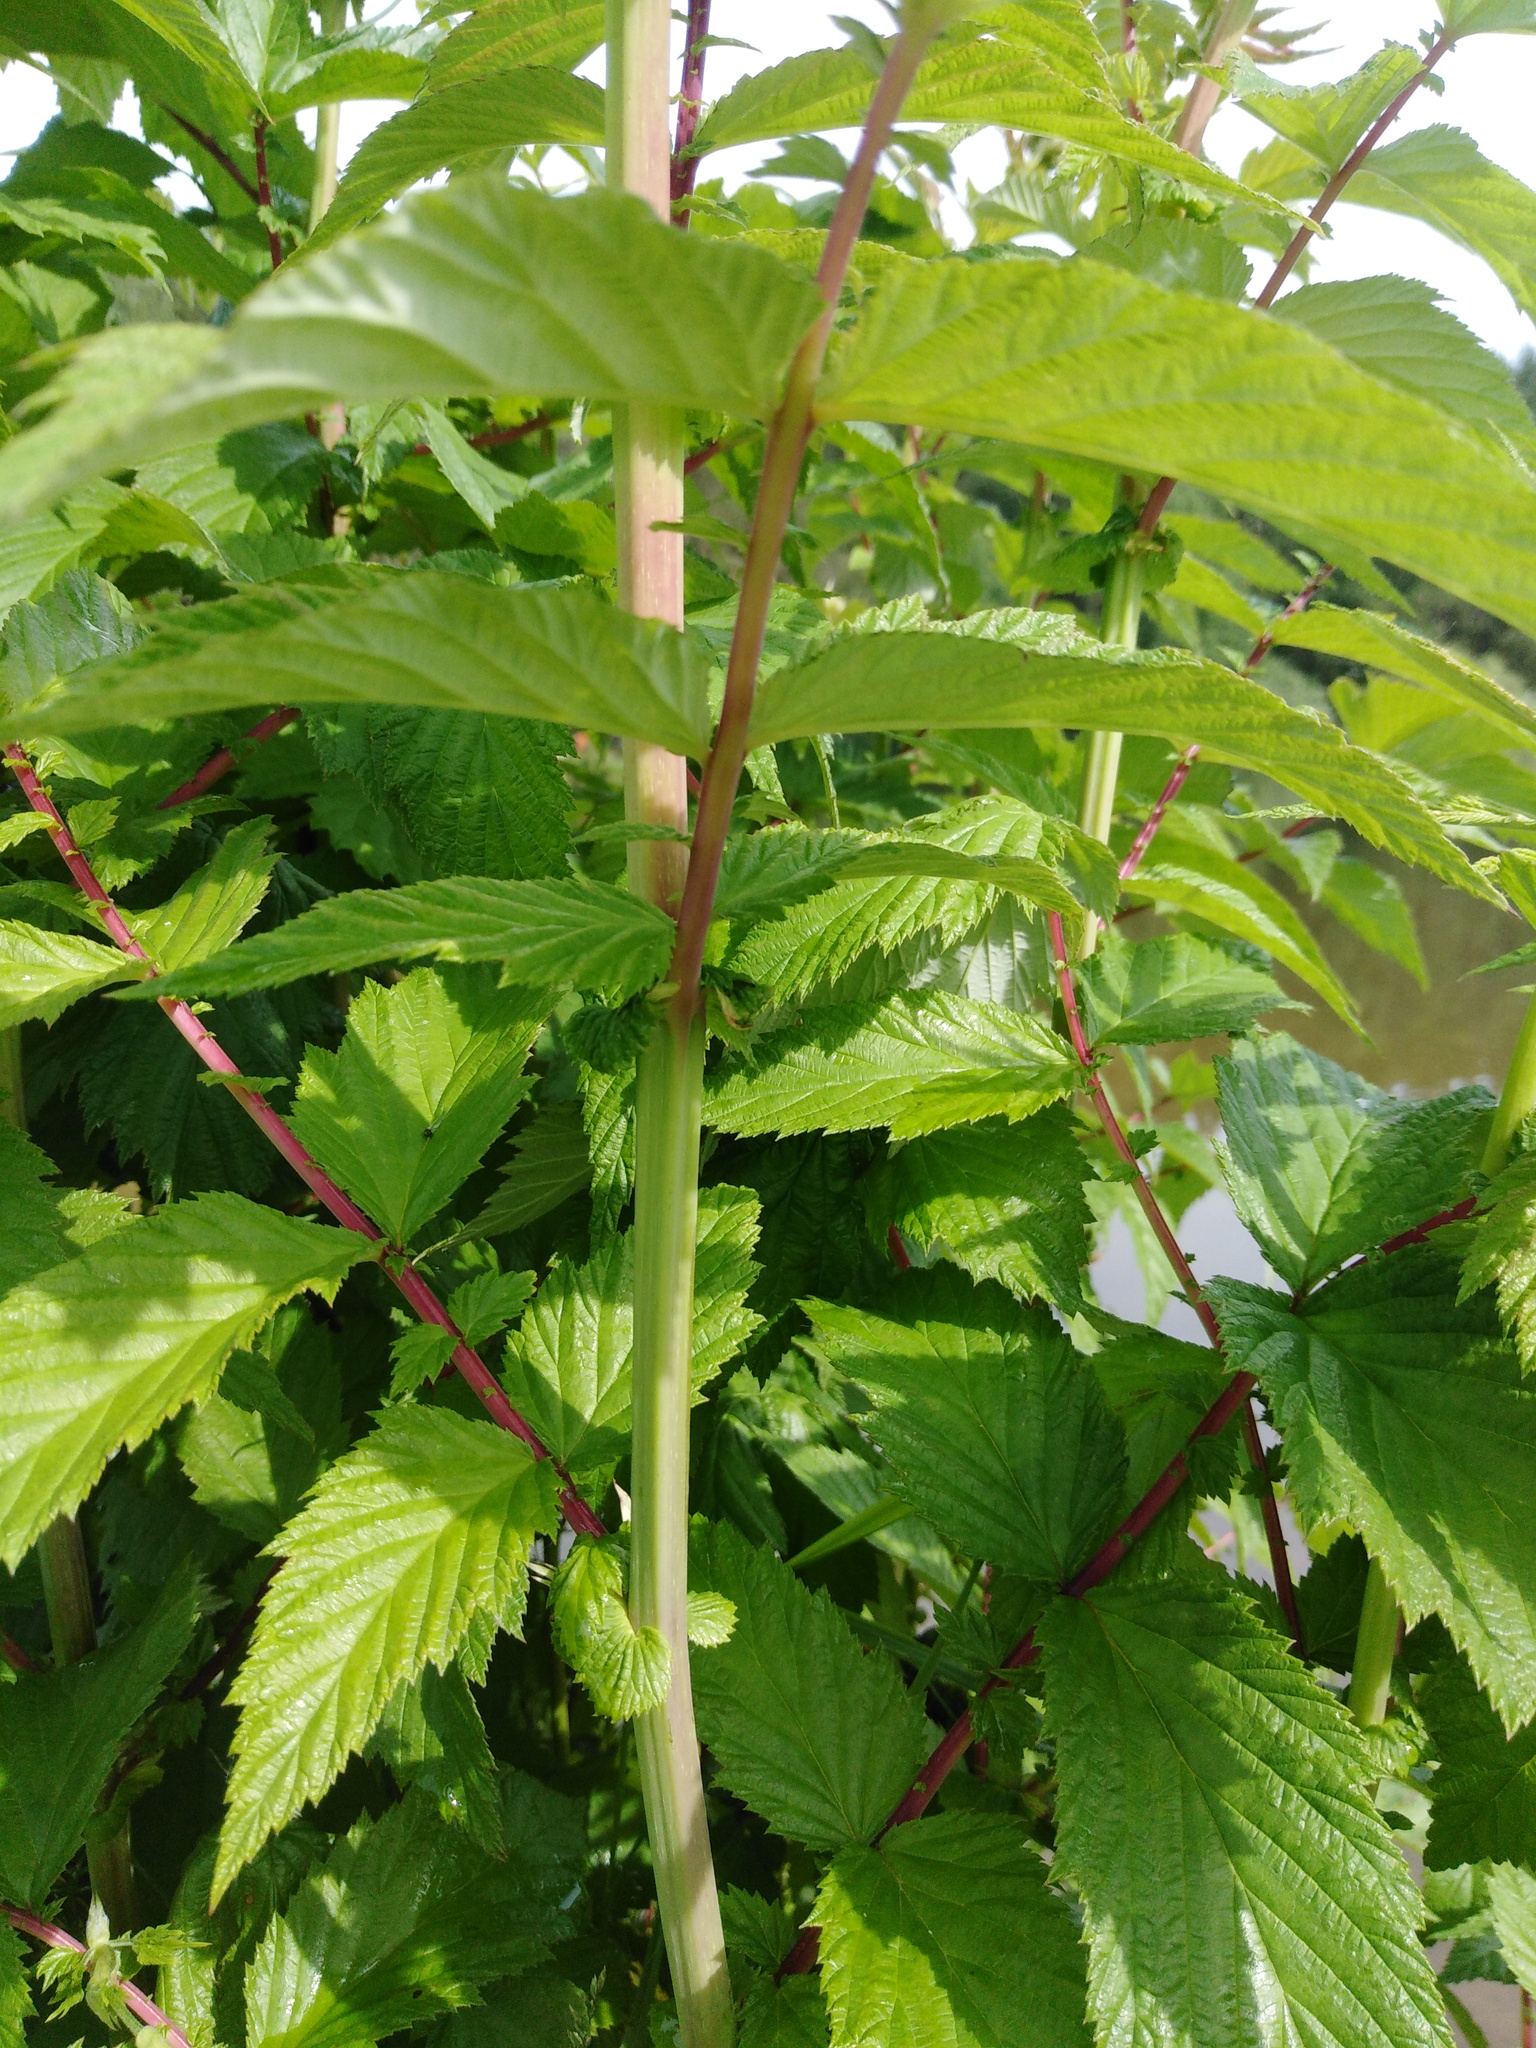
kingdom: Plantae
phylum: Tracheophyta
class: Magnoliopsida
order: Rosales
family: Rosaceae
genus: Filipendula
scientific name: Filipendula ulmaria
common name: Meadowsweet
